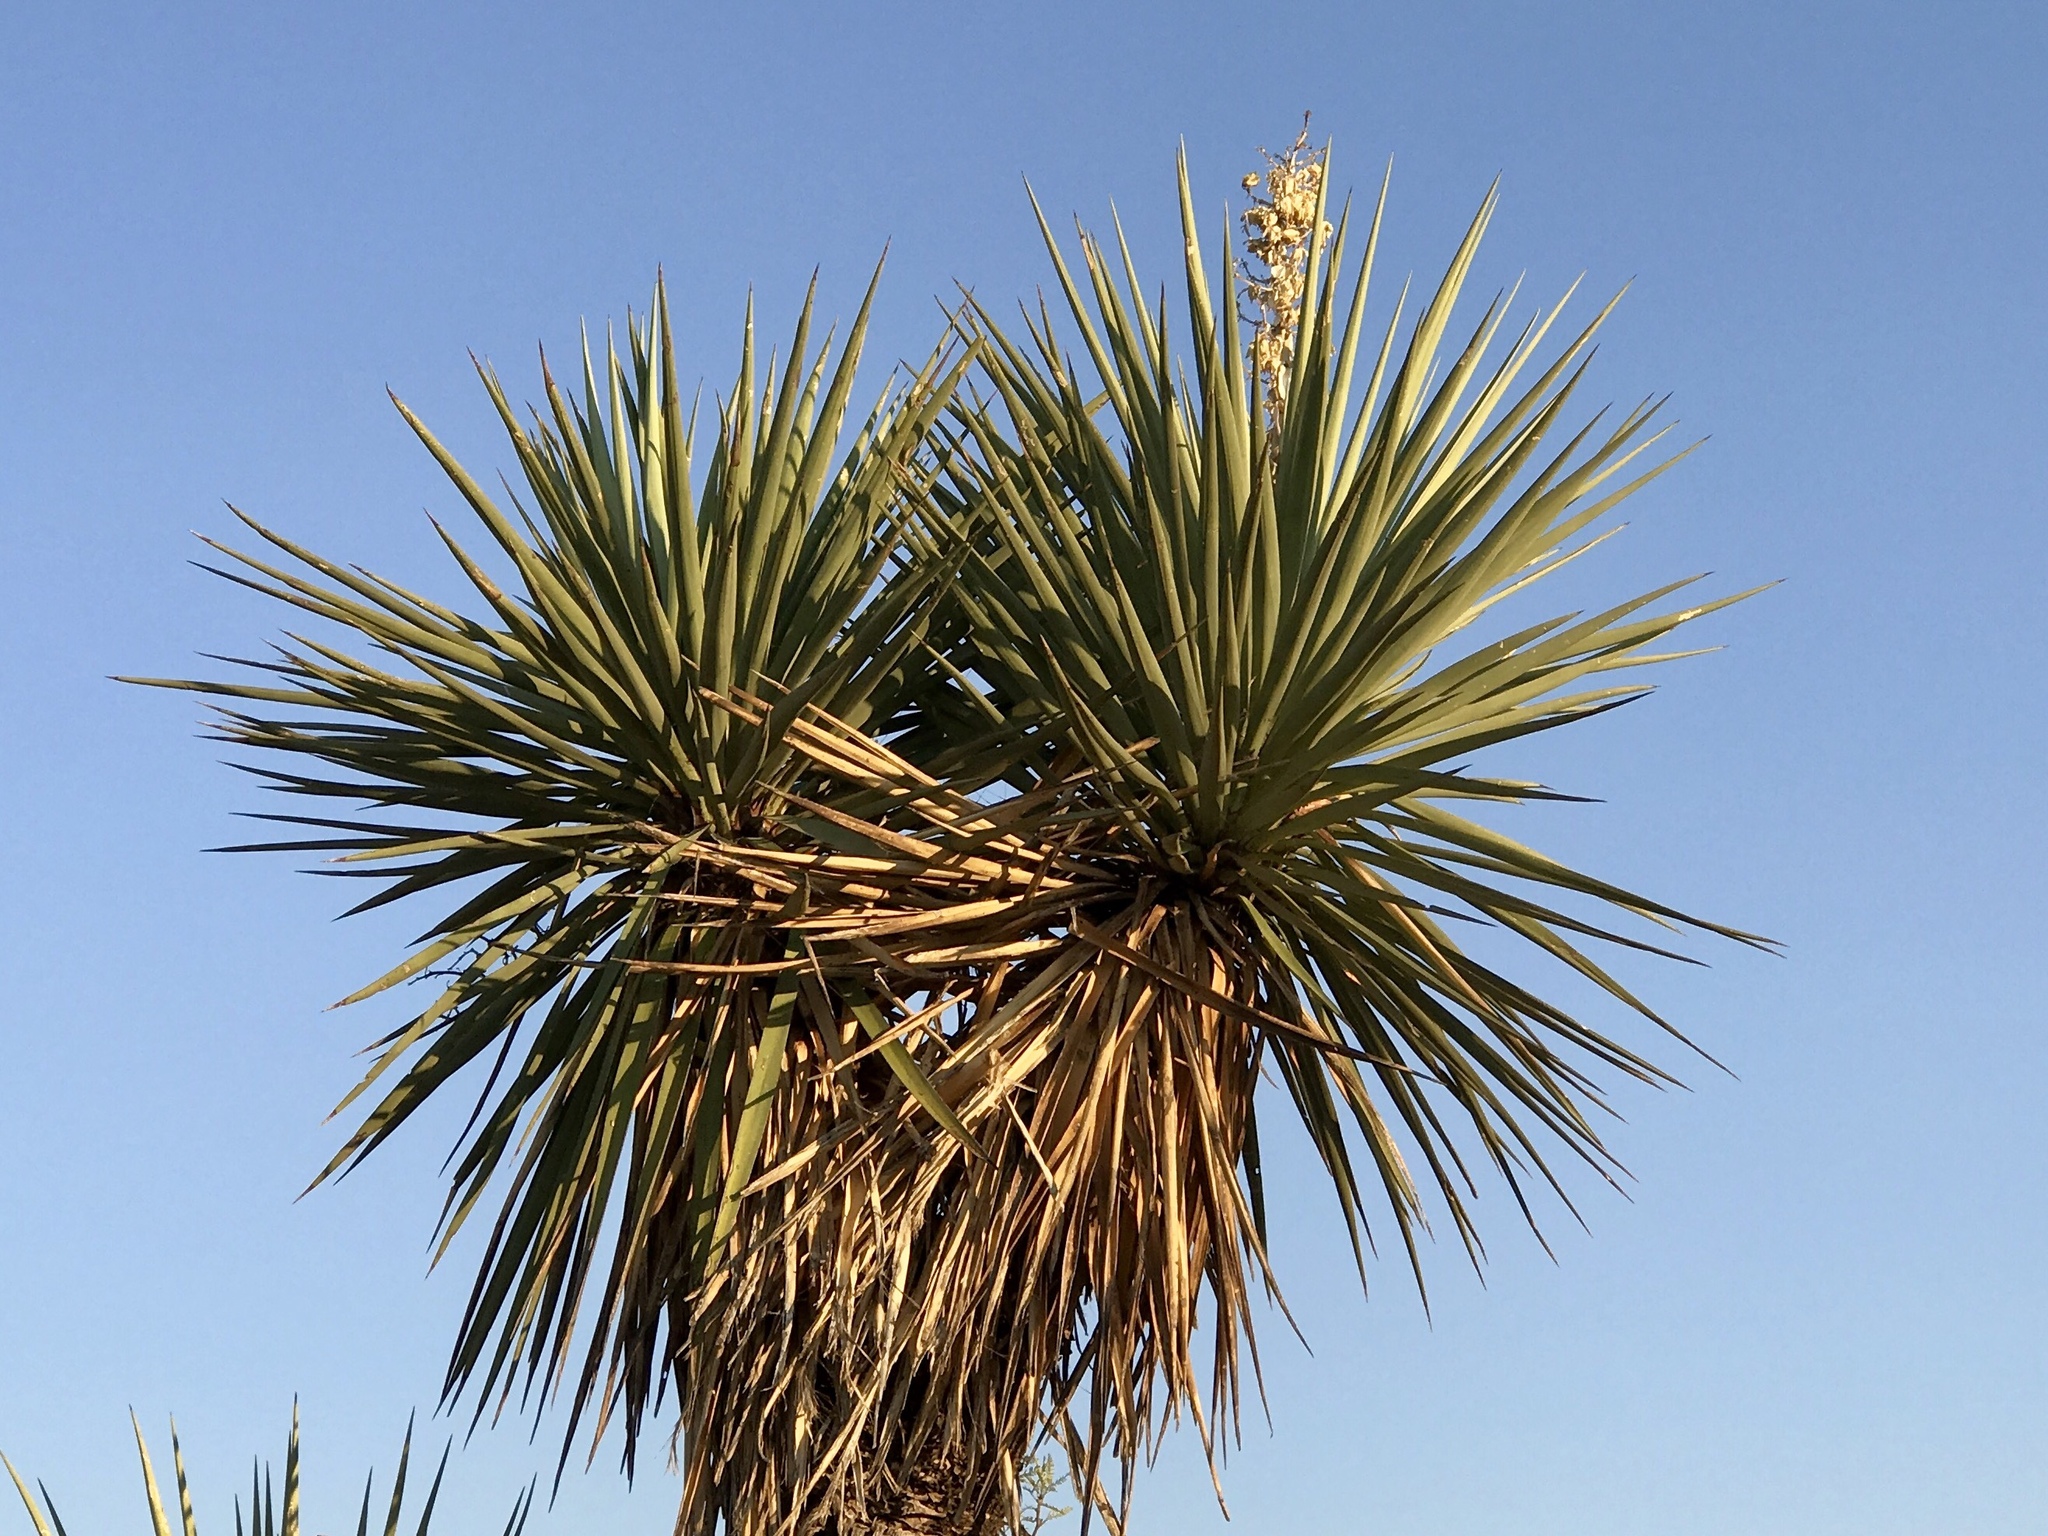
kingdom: Plantae
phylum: Tracheophyta
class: Liliopsida
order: Asparagales
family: Asparagaceae
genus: Yucca
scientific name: Yucca schottii
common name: Hoary yucca
